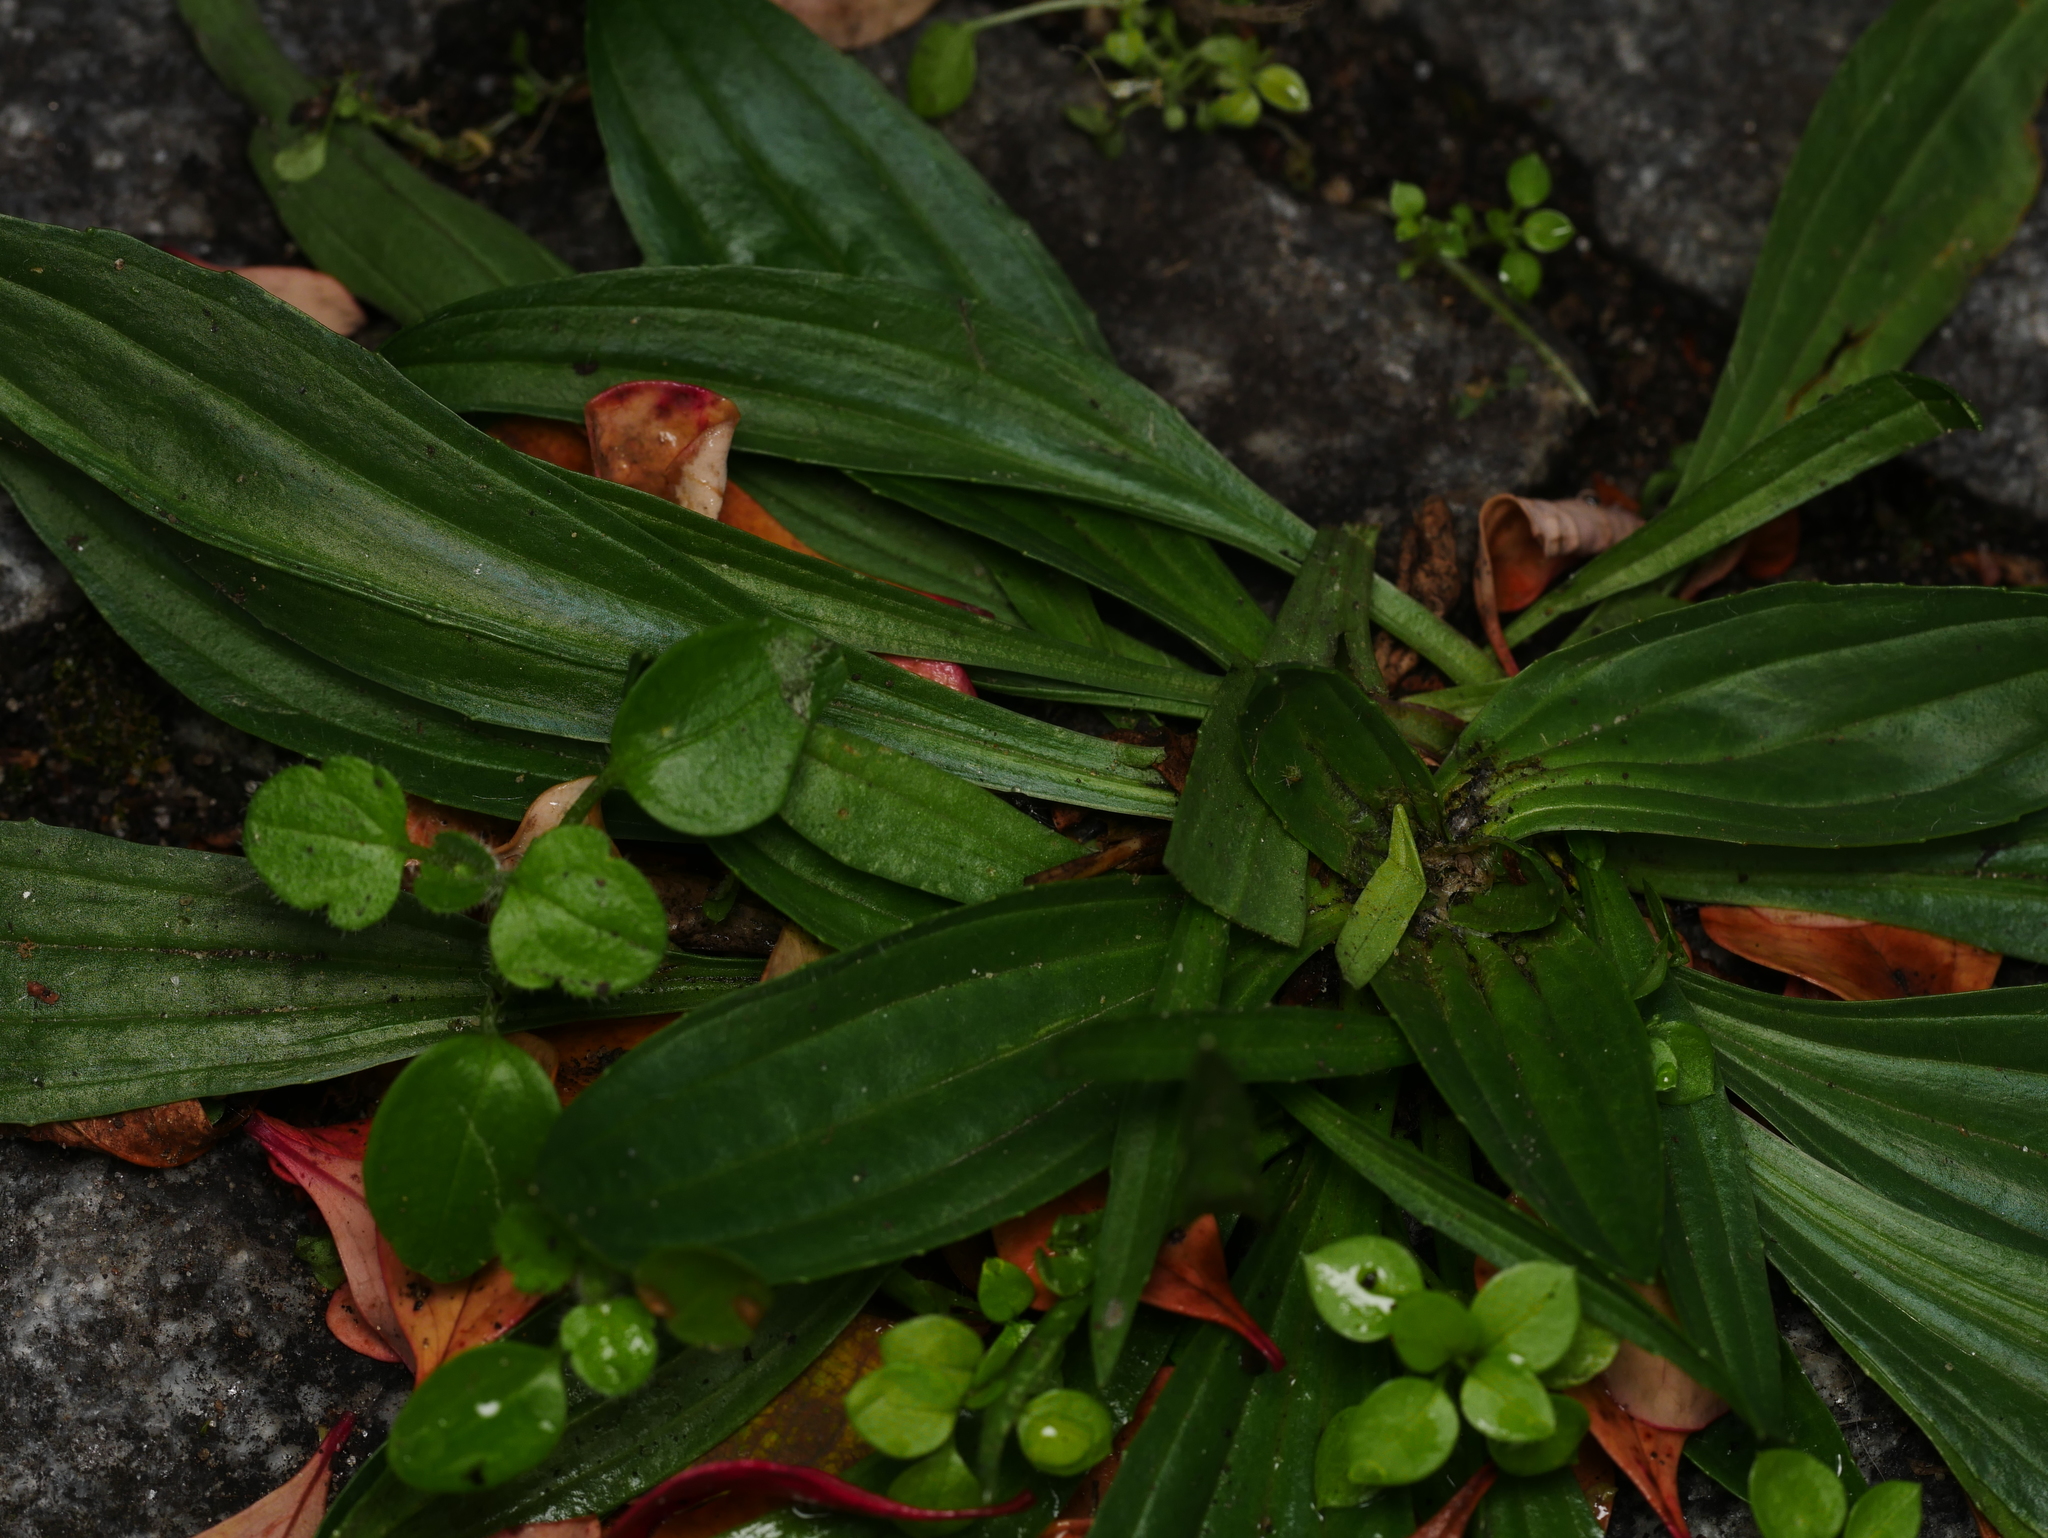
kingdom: Plantae
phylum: Tracheophyta
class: Magnoliopsida
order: Lamiales
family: Plantaginaceae
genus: Plantago
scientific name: Plantago lanceolata
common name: Ribwort plantain
